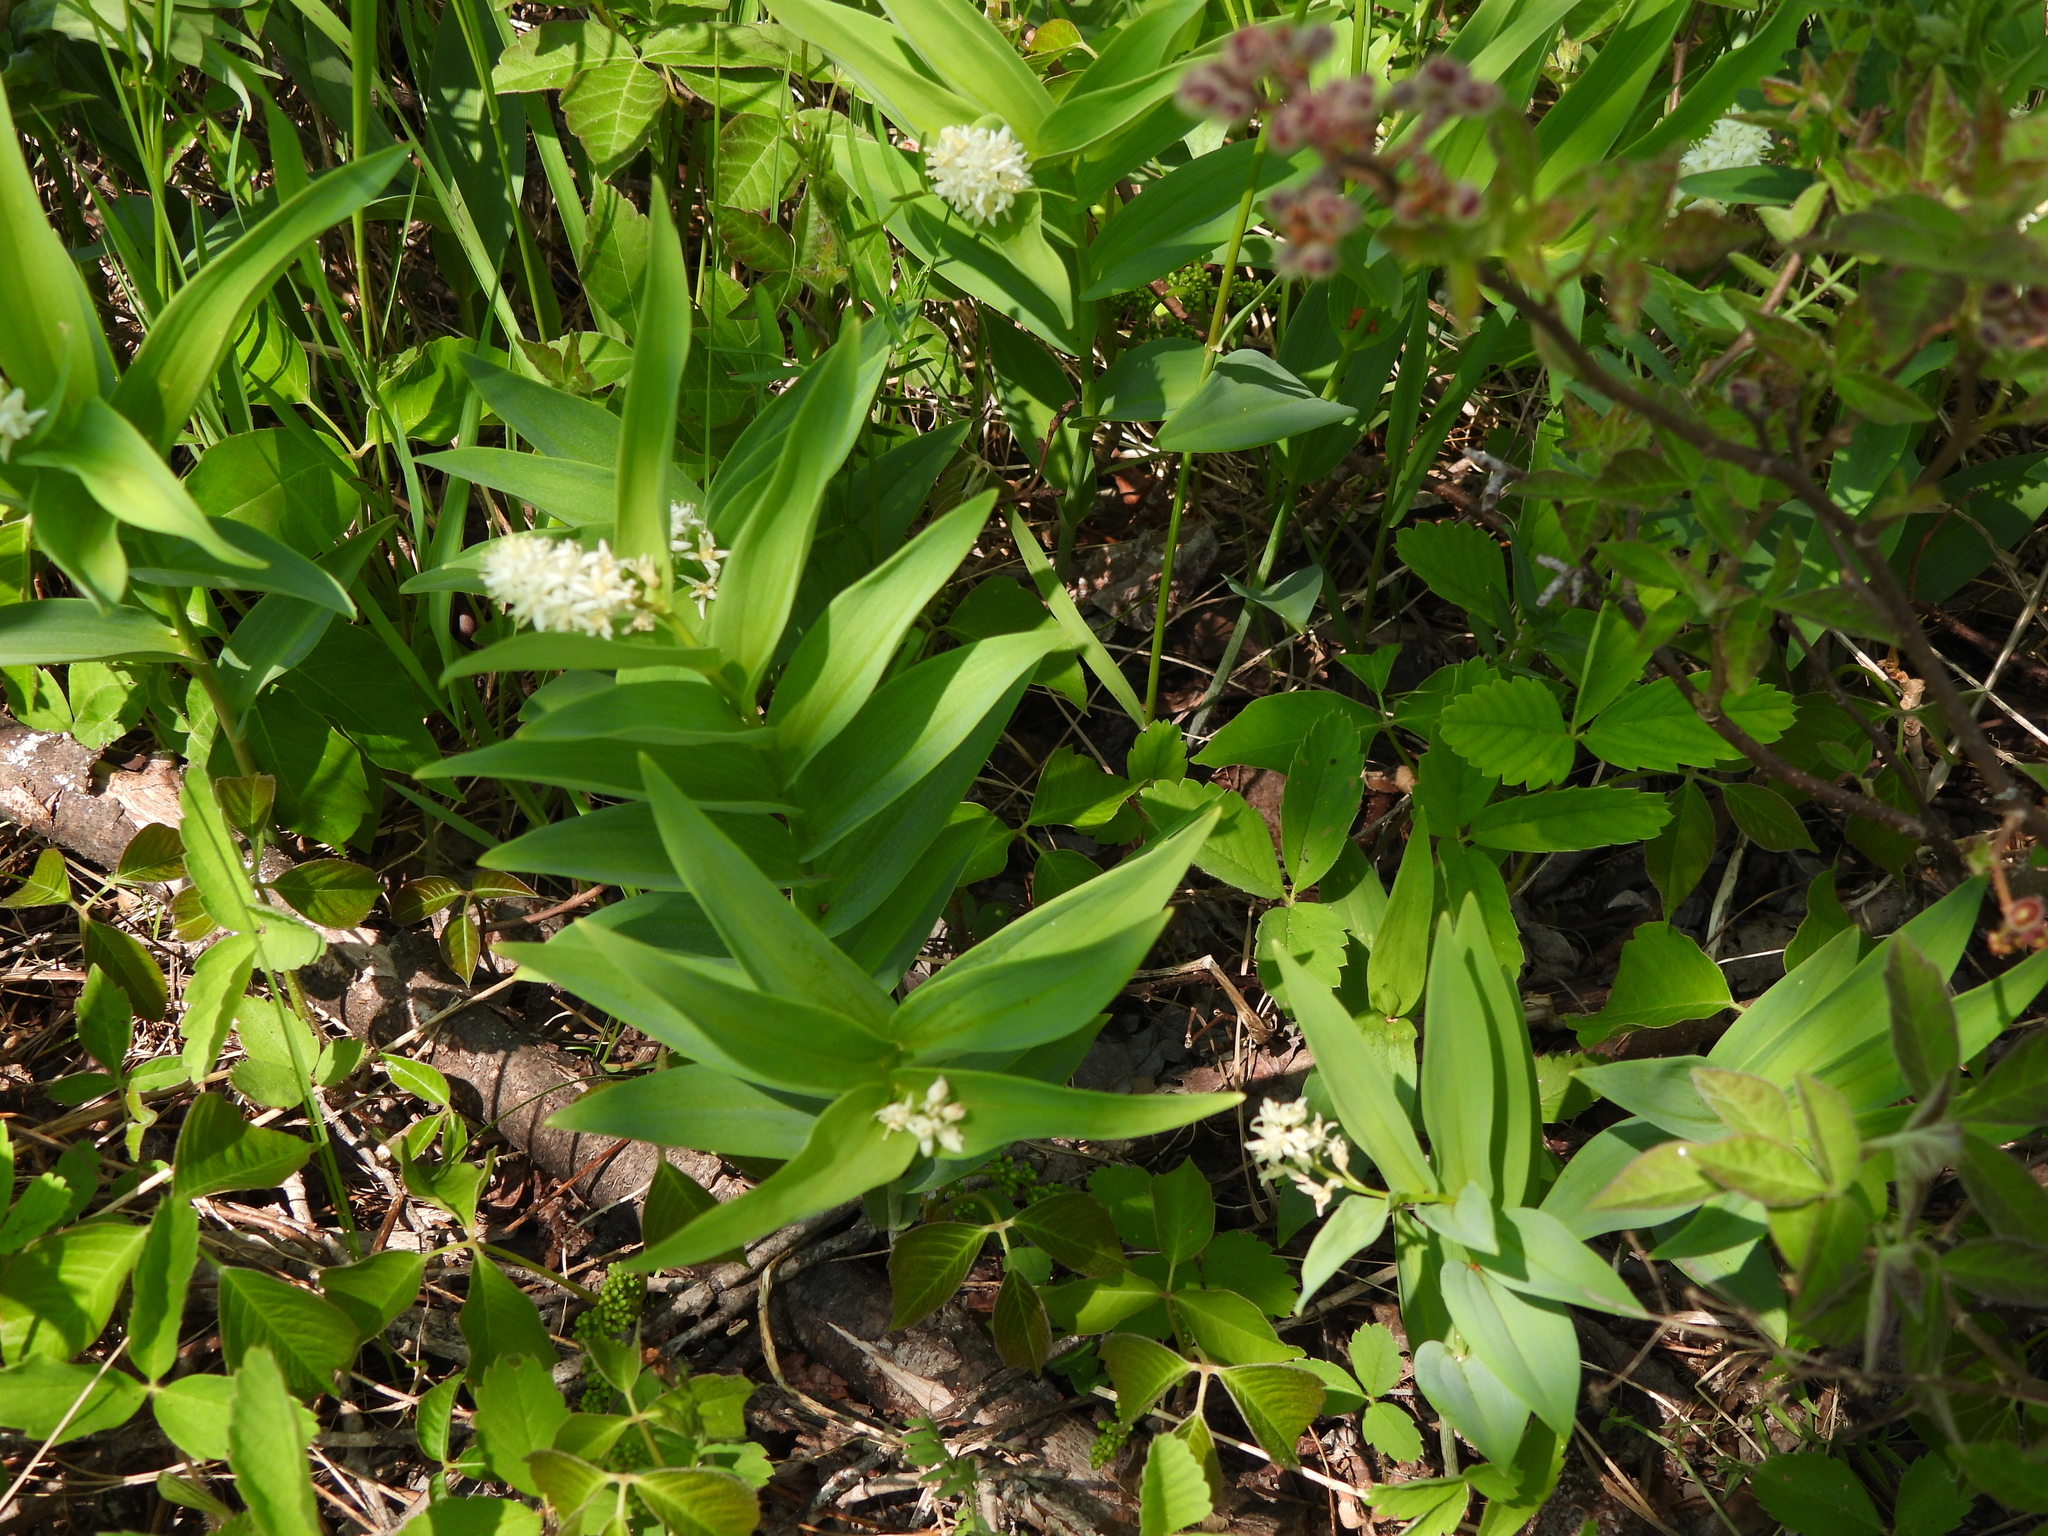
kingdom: Plantae
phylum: Tracheophyta
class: Liliopsida
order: Asparagales
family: Asparagaceae
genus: Maianthemum
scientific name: Maianthemum stellatum
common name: Little false solomon's seal
